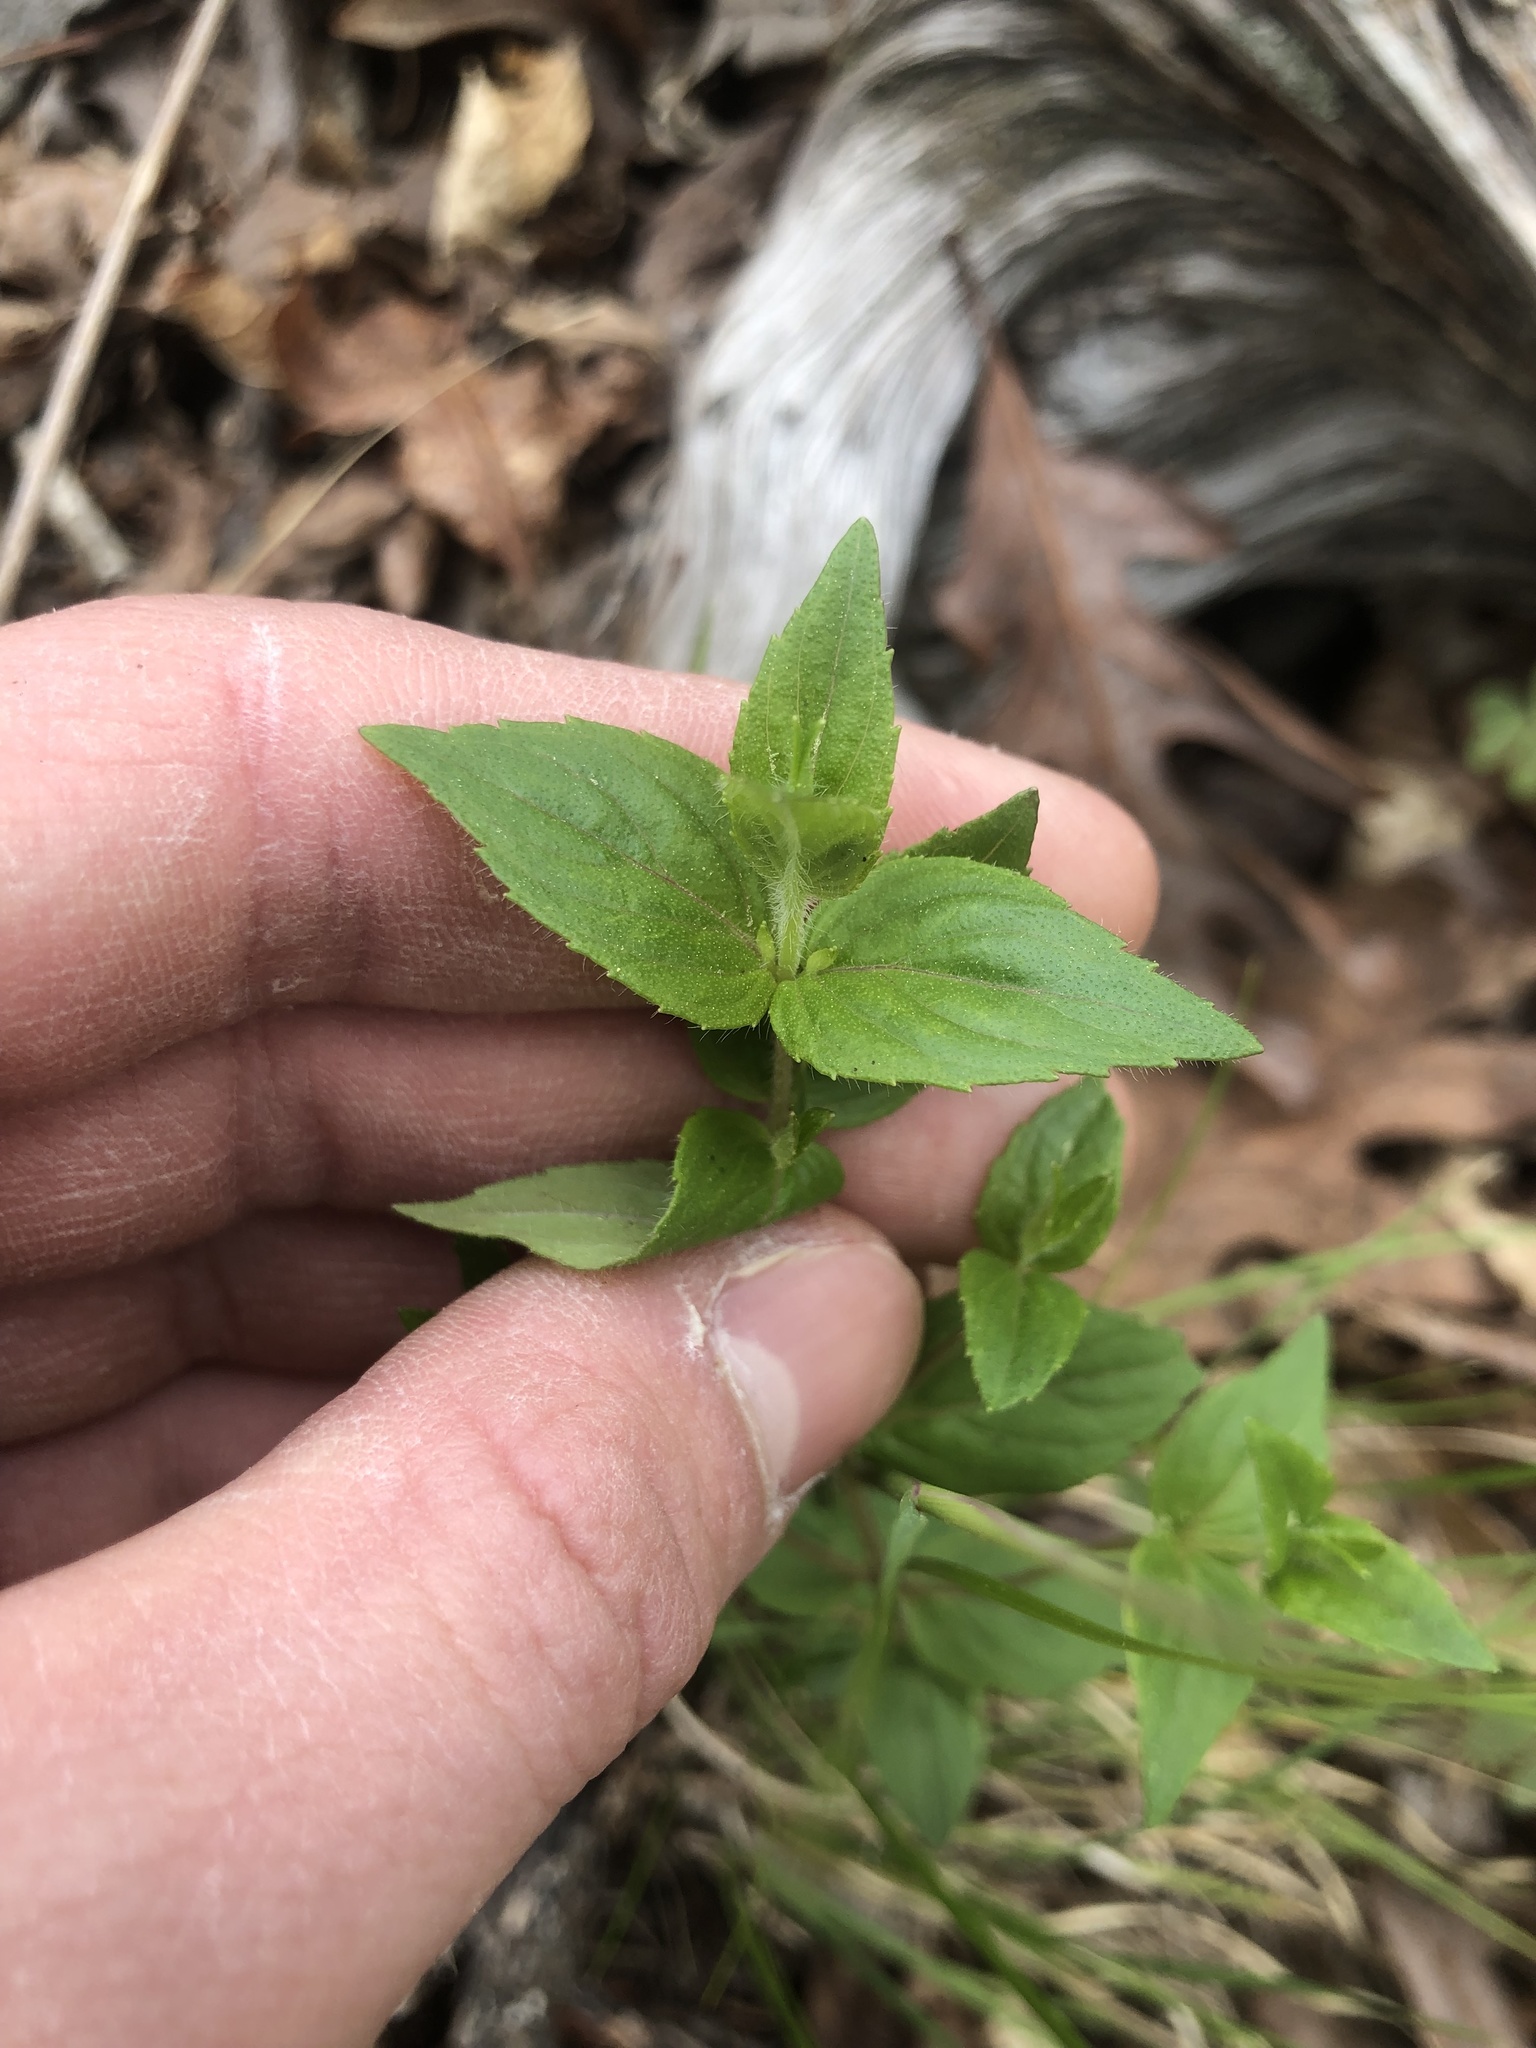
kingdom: Plantae
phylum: Tracheophyta
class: Magnoliopsida
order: Lamiales
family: Lamiaceae
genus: Cunila
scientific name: Cunila origanoides
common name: American dittany
